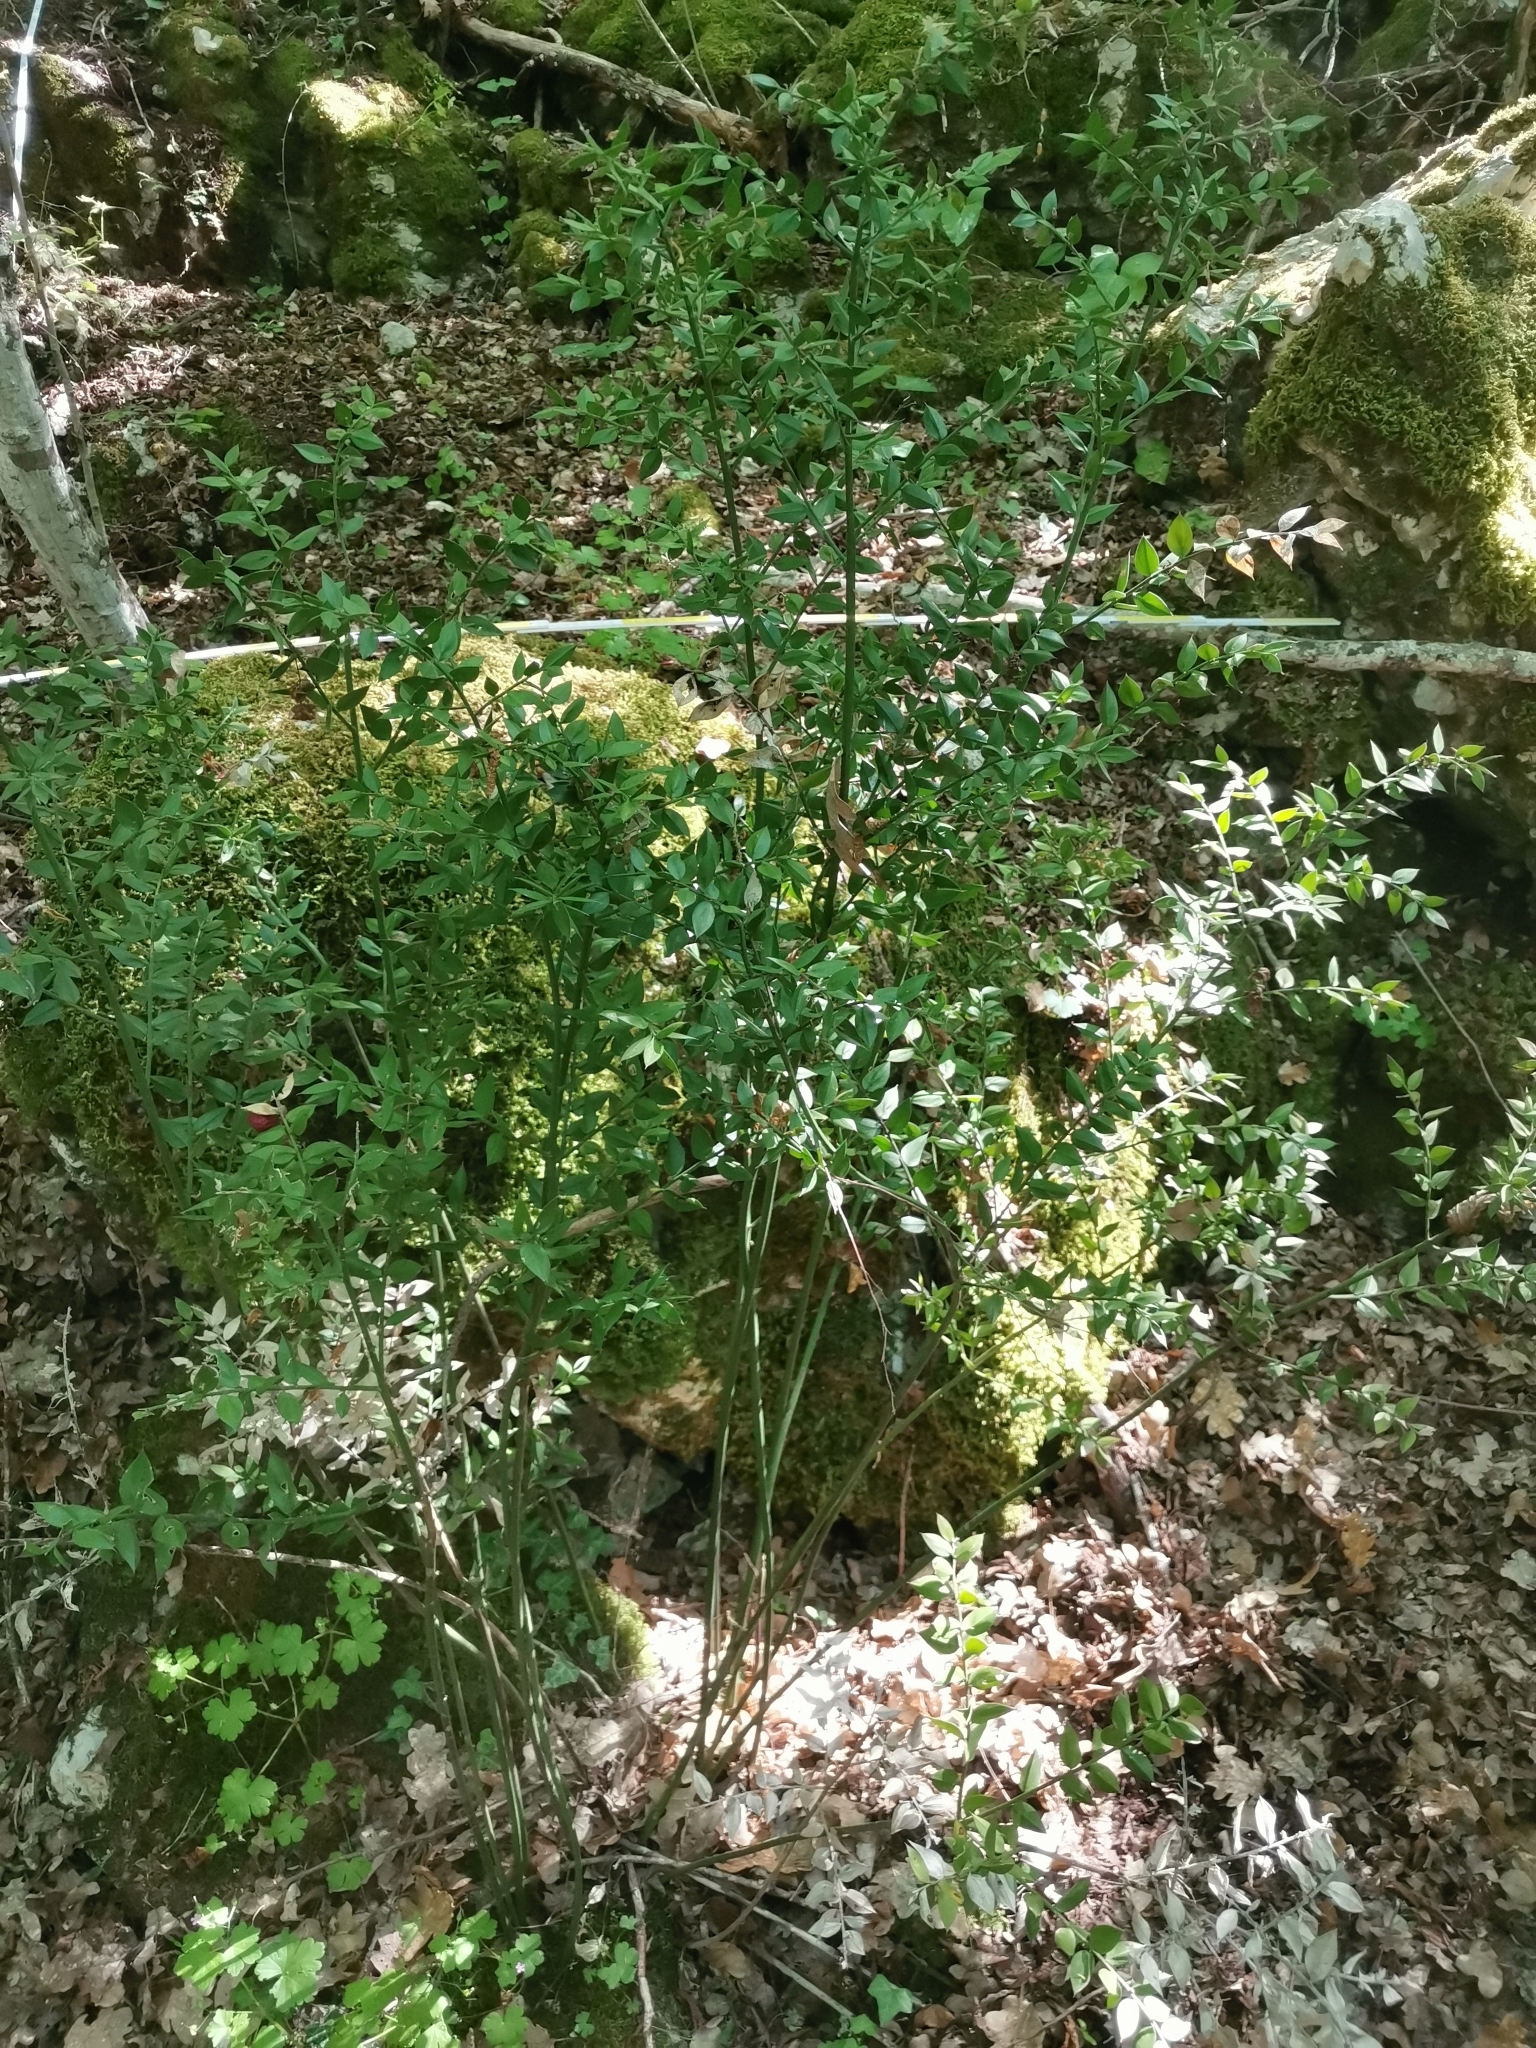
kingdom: Plantae
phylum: Tracheophyta
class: Liliopsida
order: Asparagales
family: Asparagaceae
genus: Ruscus
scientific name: Ruscus aculeatus
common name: Butcher's-broom
